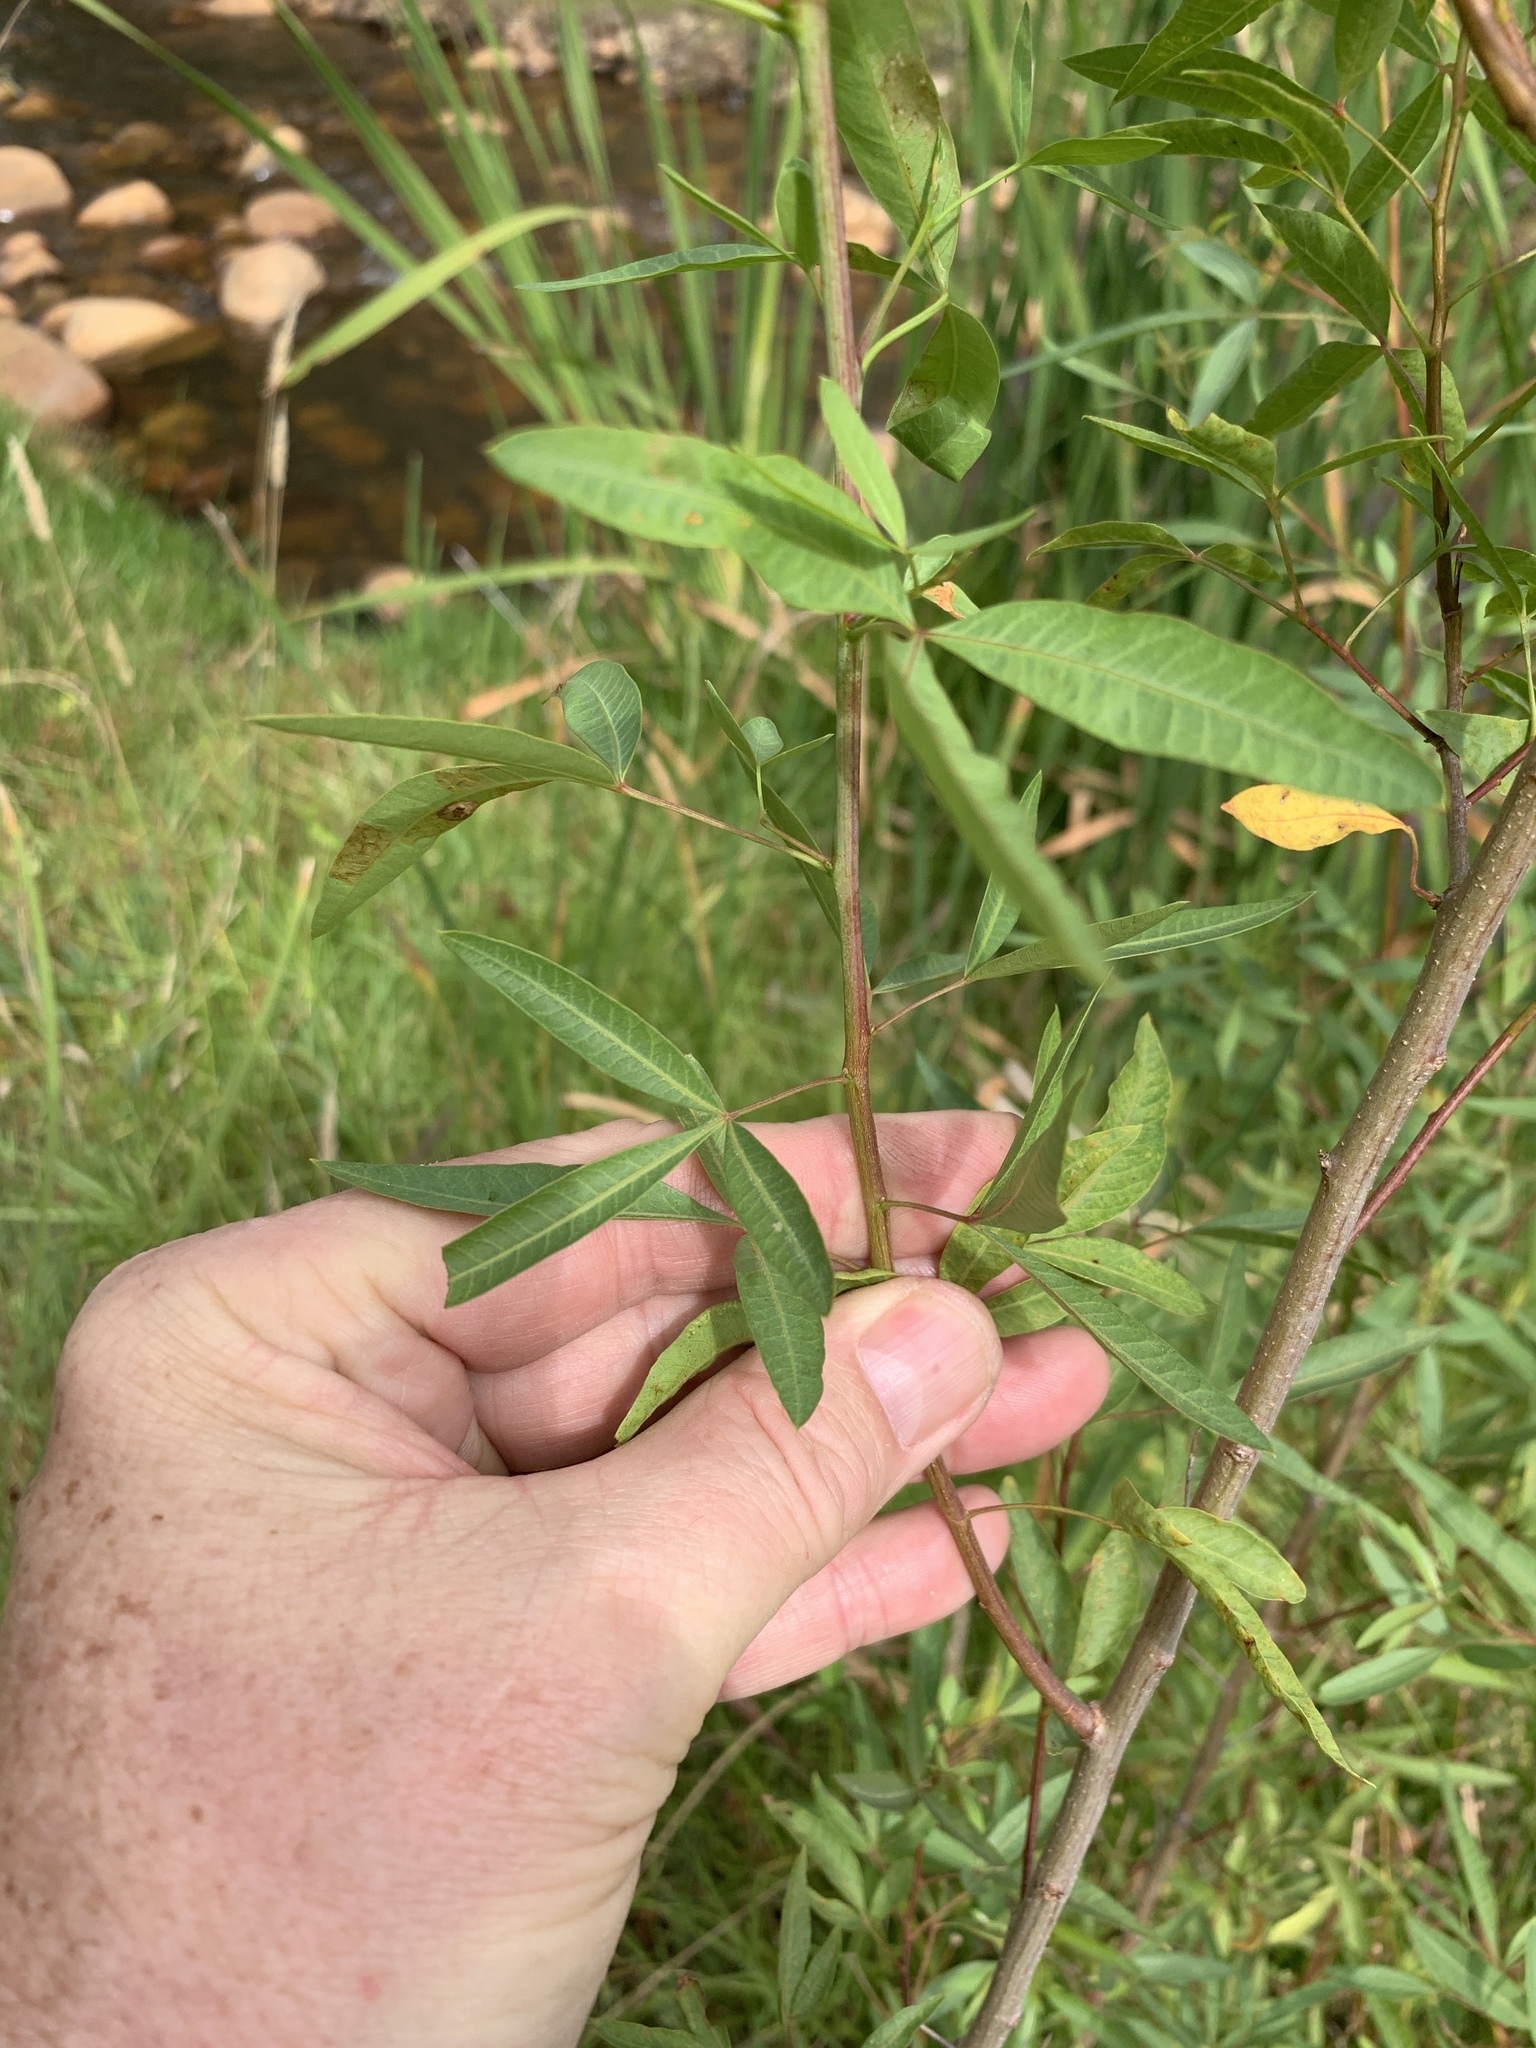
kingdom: Plantae
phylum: Tracheophyta
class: Magnoliopsida
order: Sapindales
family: Anacardiaceae
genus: Searsia
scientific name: Searsia pendulina
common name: White karee
